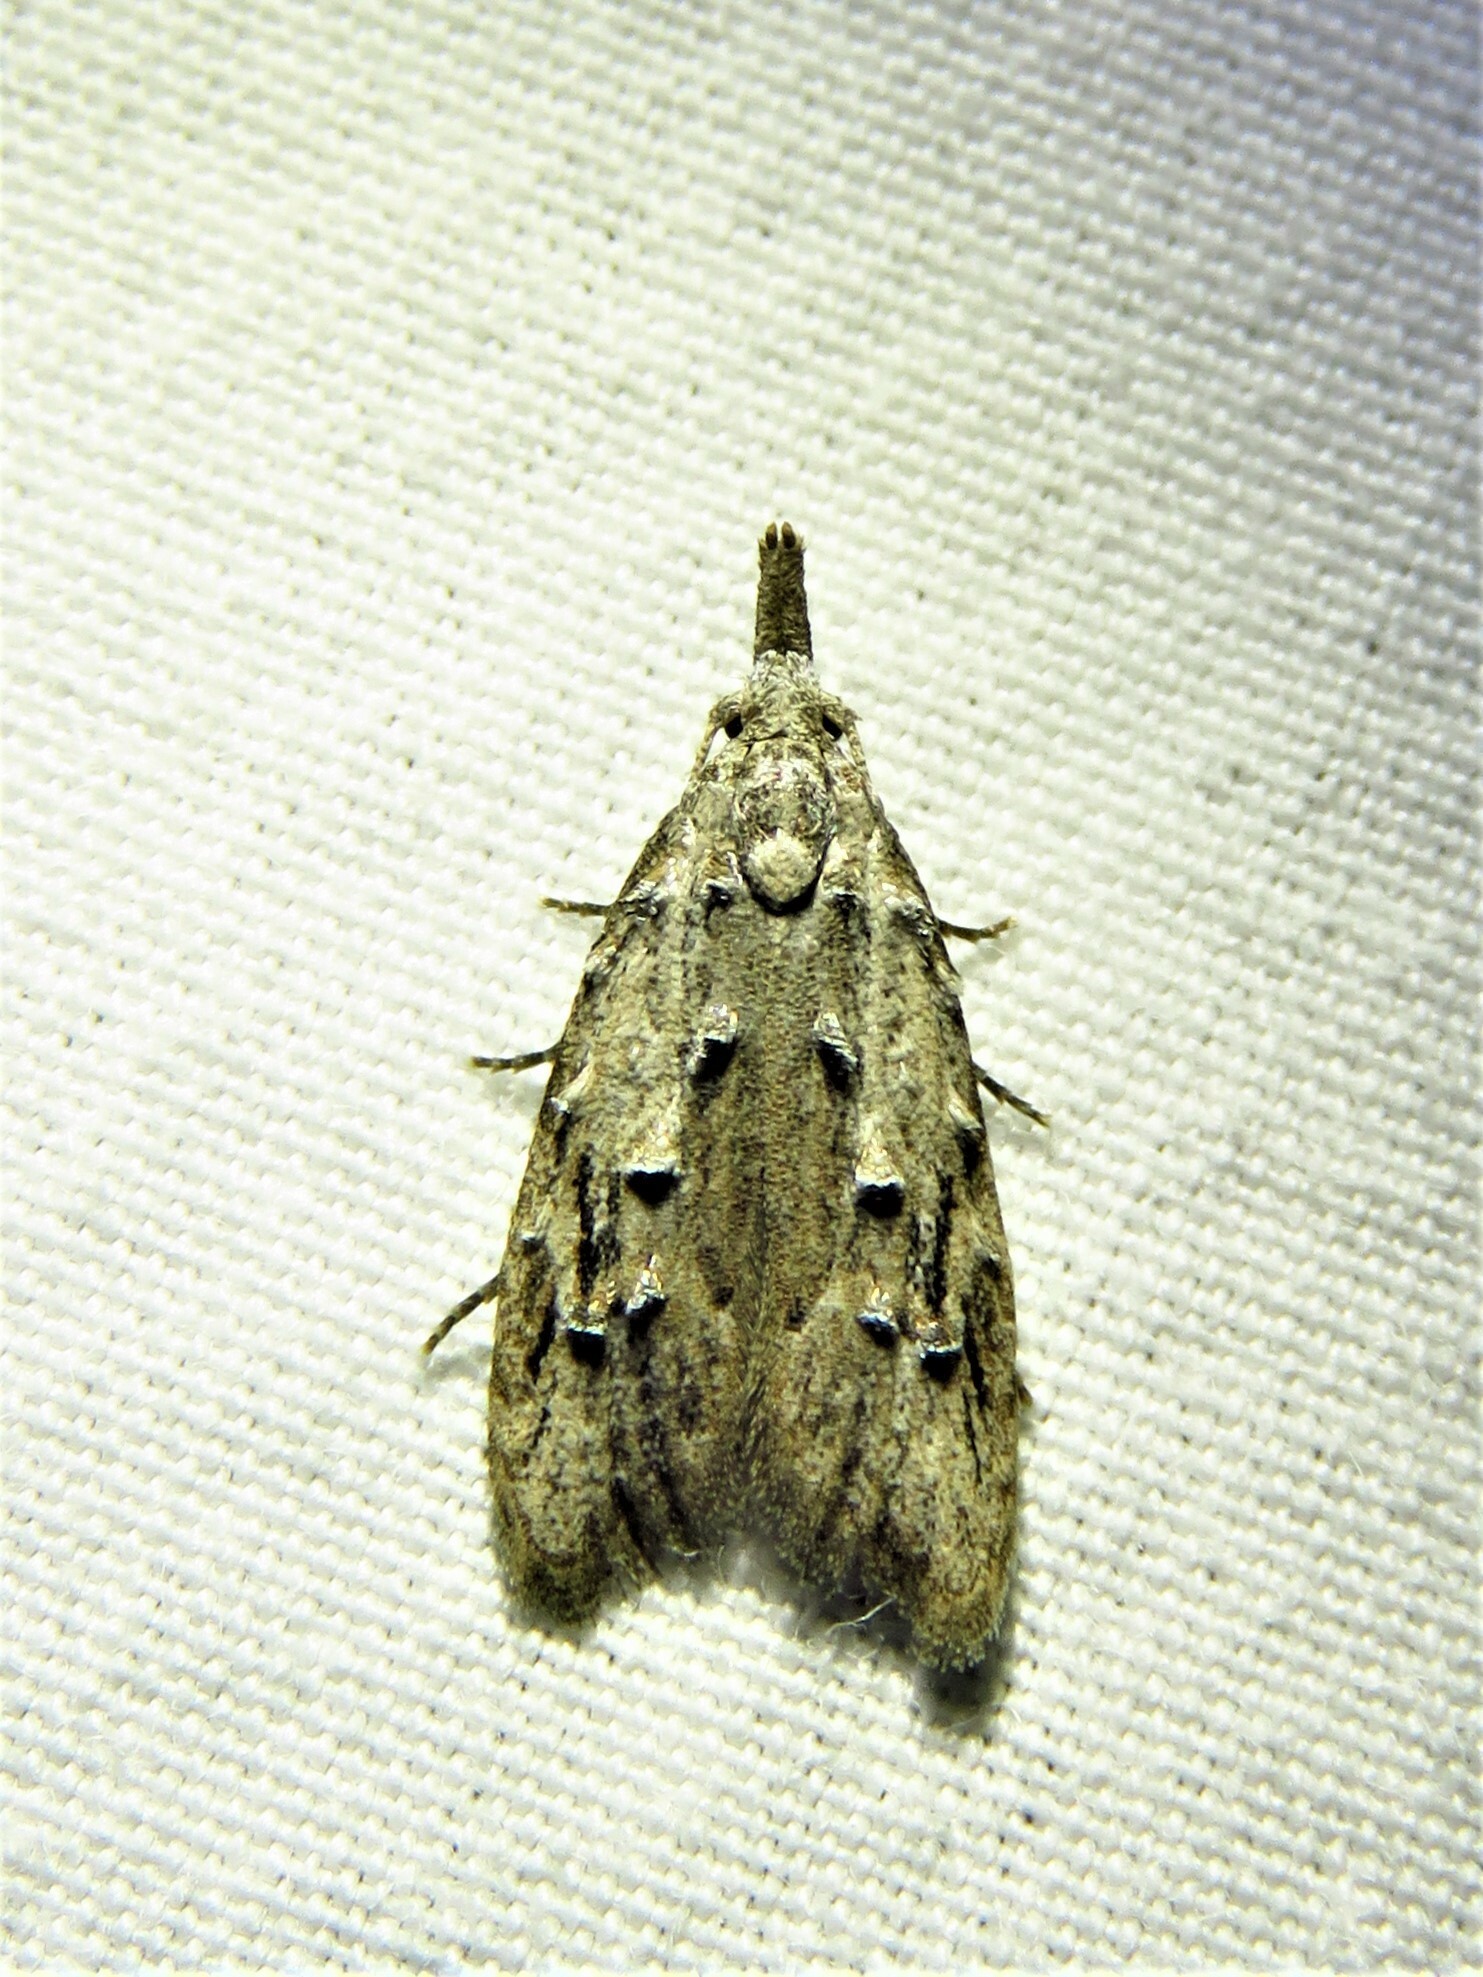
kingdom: Animalia
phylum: Arthropoda
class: Insecta
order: Lepidoptera
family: Carposinidae
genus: Carposina
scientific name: Carposina simulator
